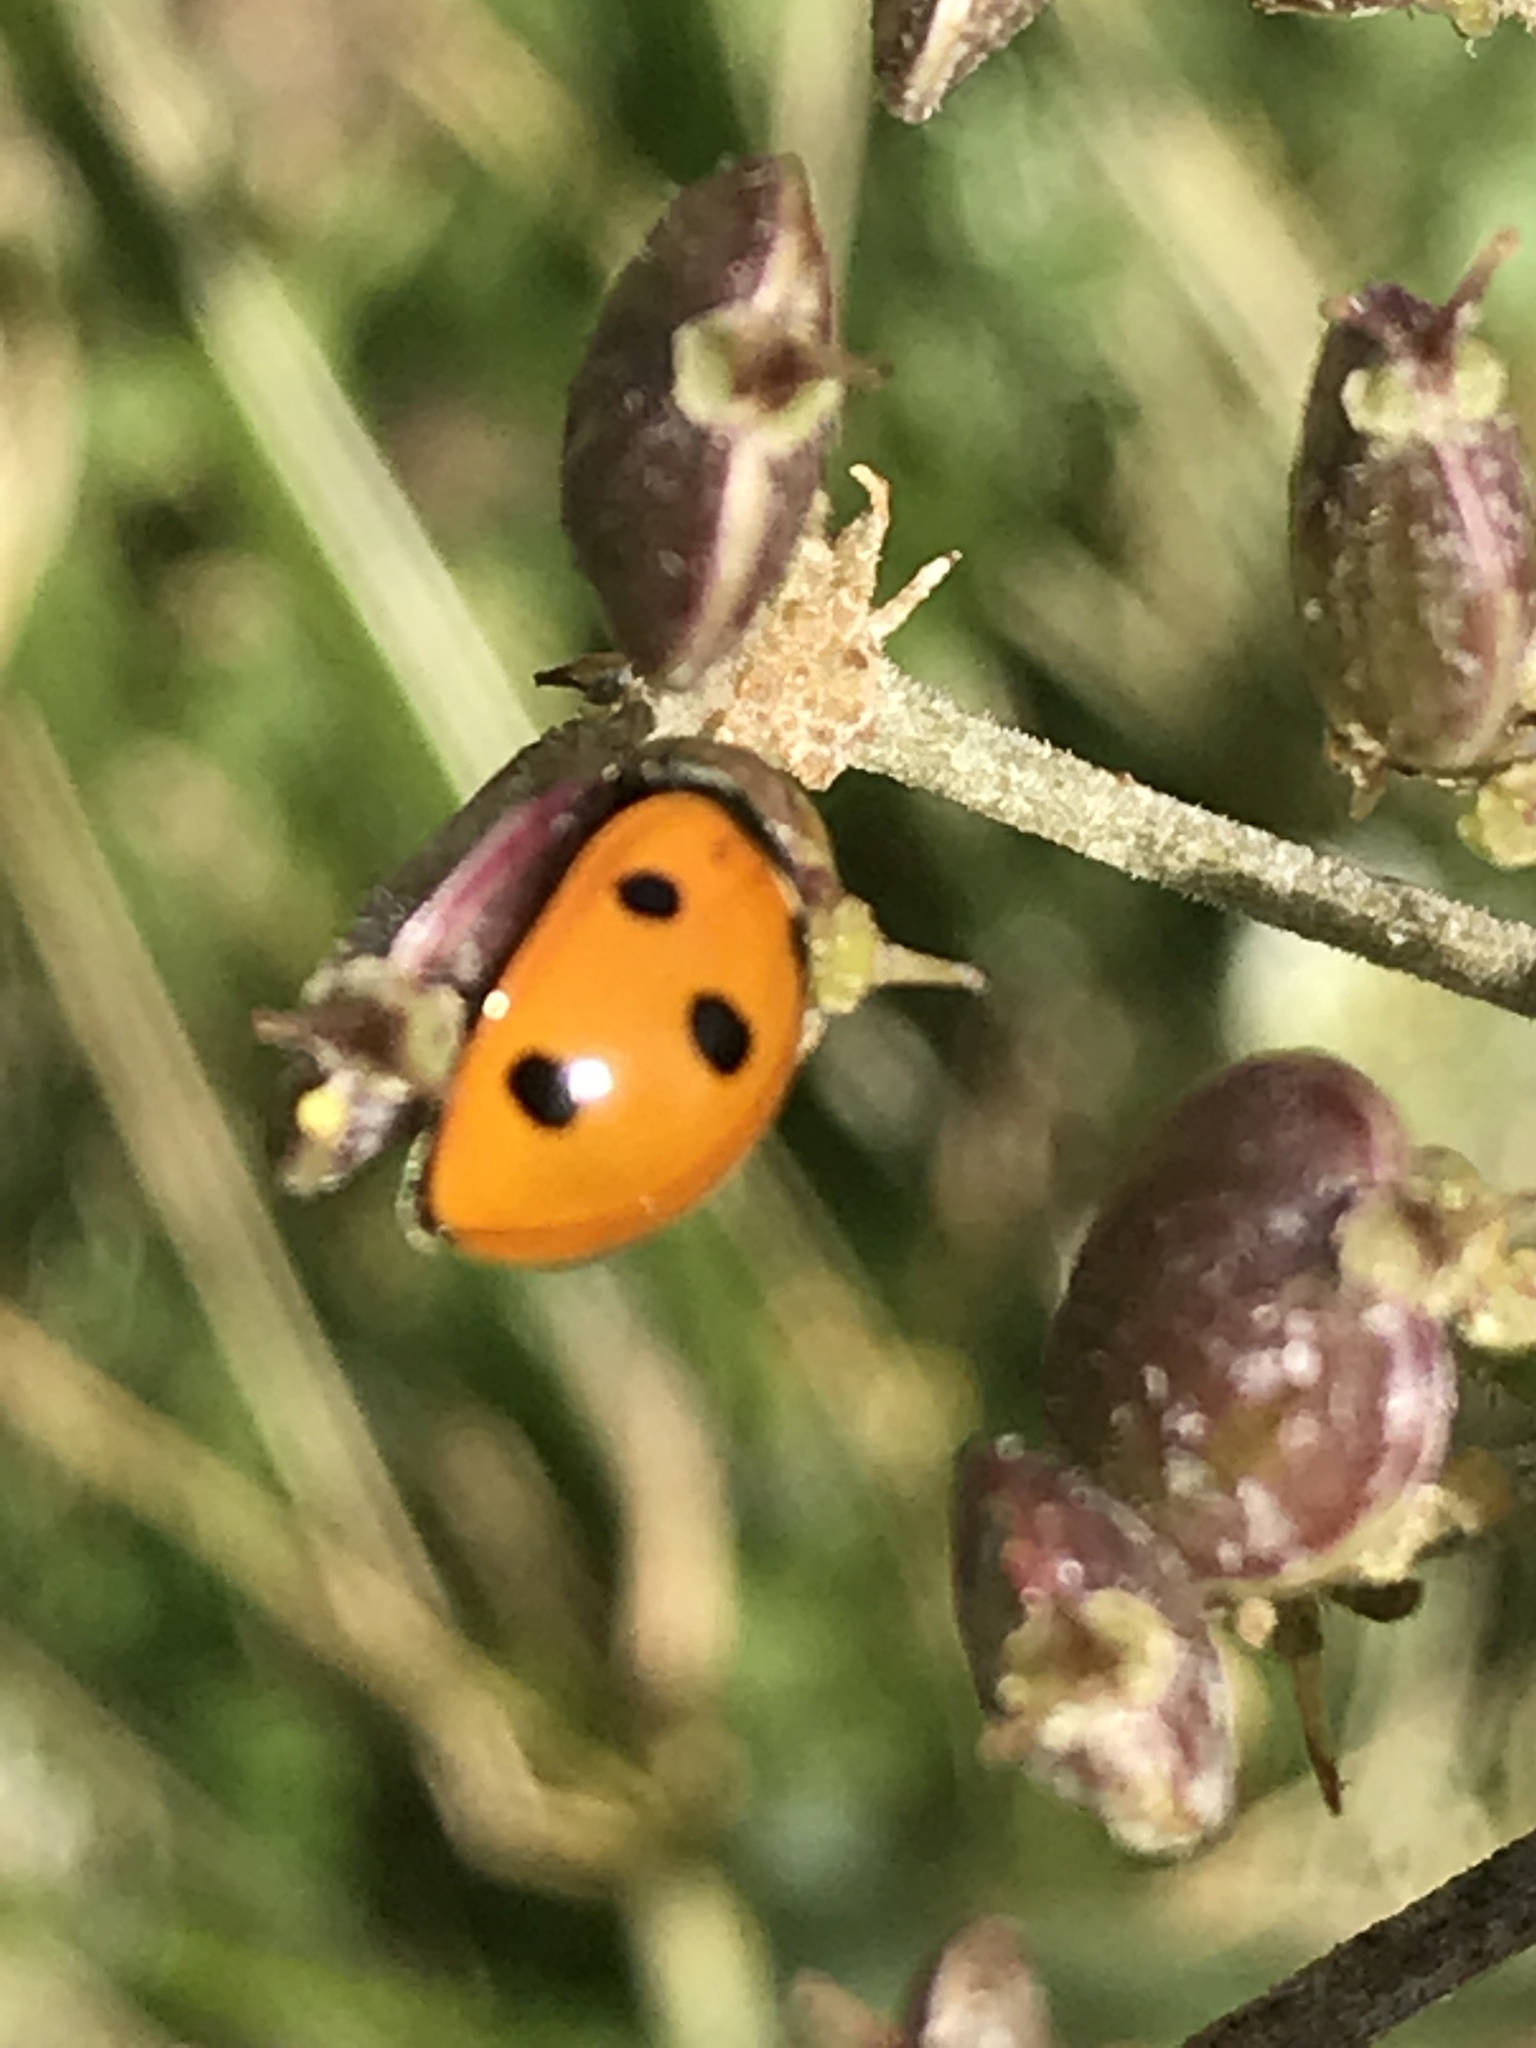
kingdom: Animalia
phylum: Arthropoda
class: Insecta
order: Coleoptera
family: Coccinellidae
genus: Coccinella
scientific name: Coccinella septempunctata
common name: Sevenspotted lady beetle
